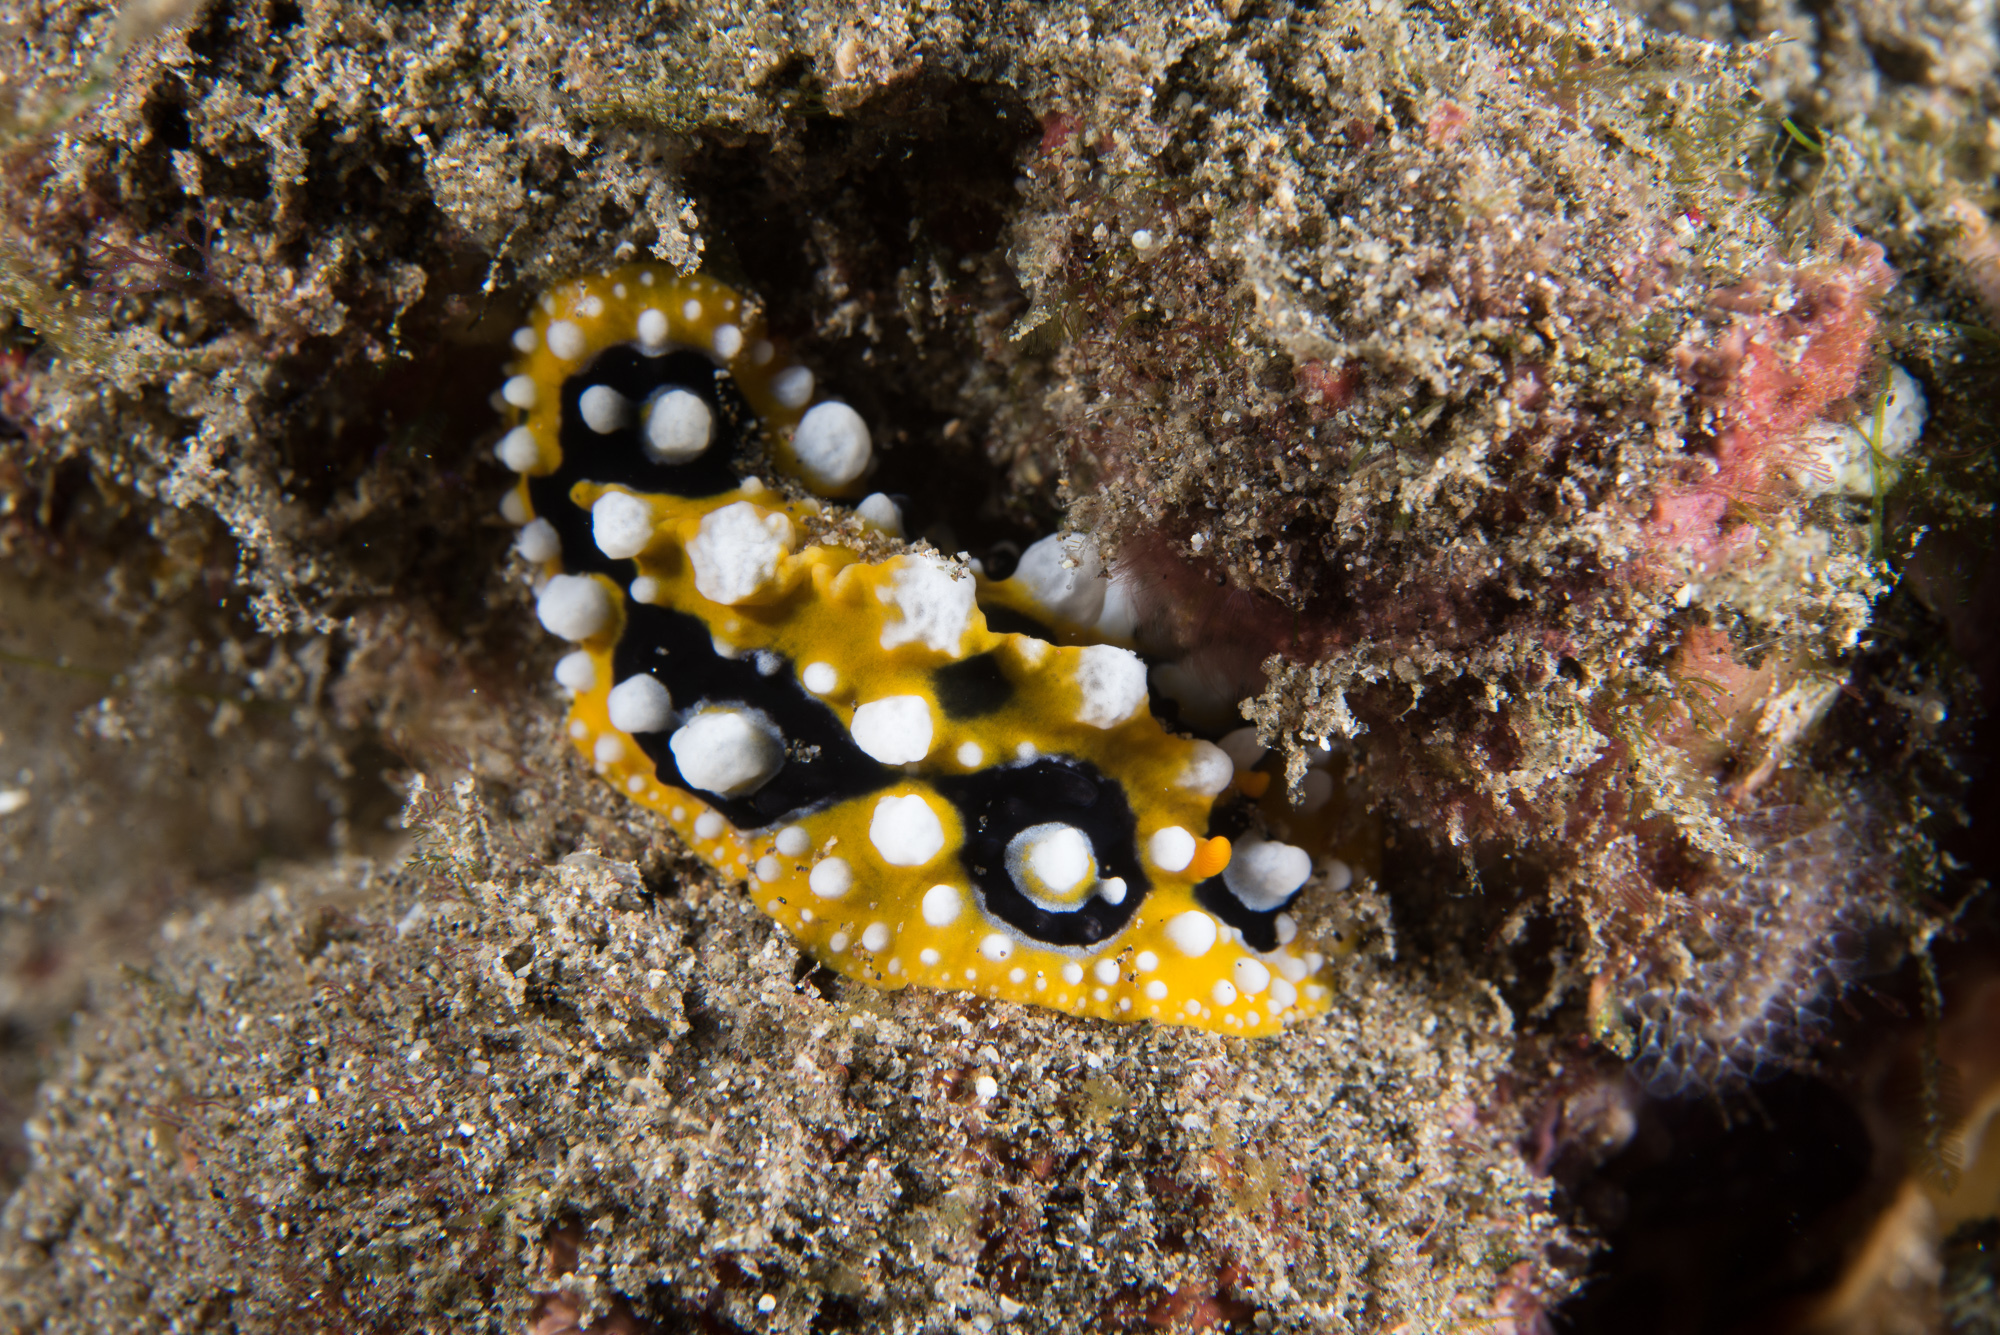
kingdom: Animalia
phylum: Mollusca
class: Gastropoda
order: Nudibranchia
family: Phyllidiidae
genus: Phyllidia
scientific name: Phyllidia ocellata
